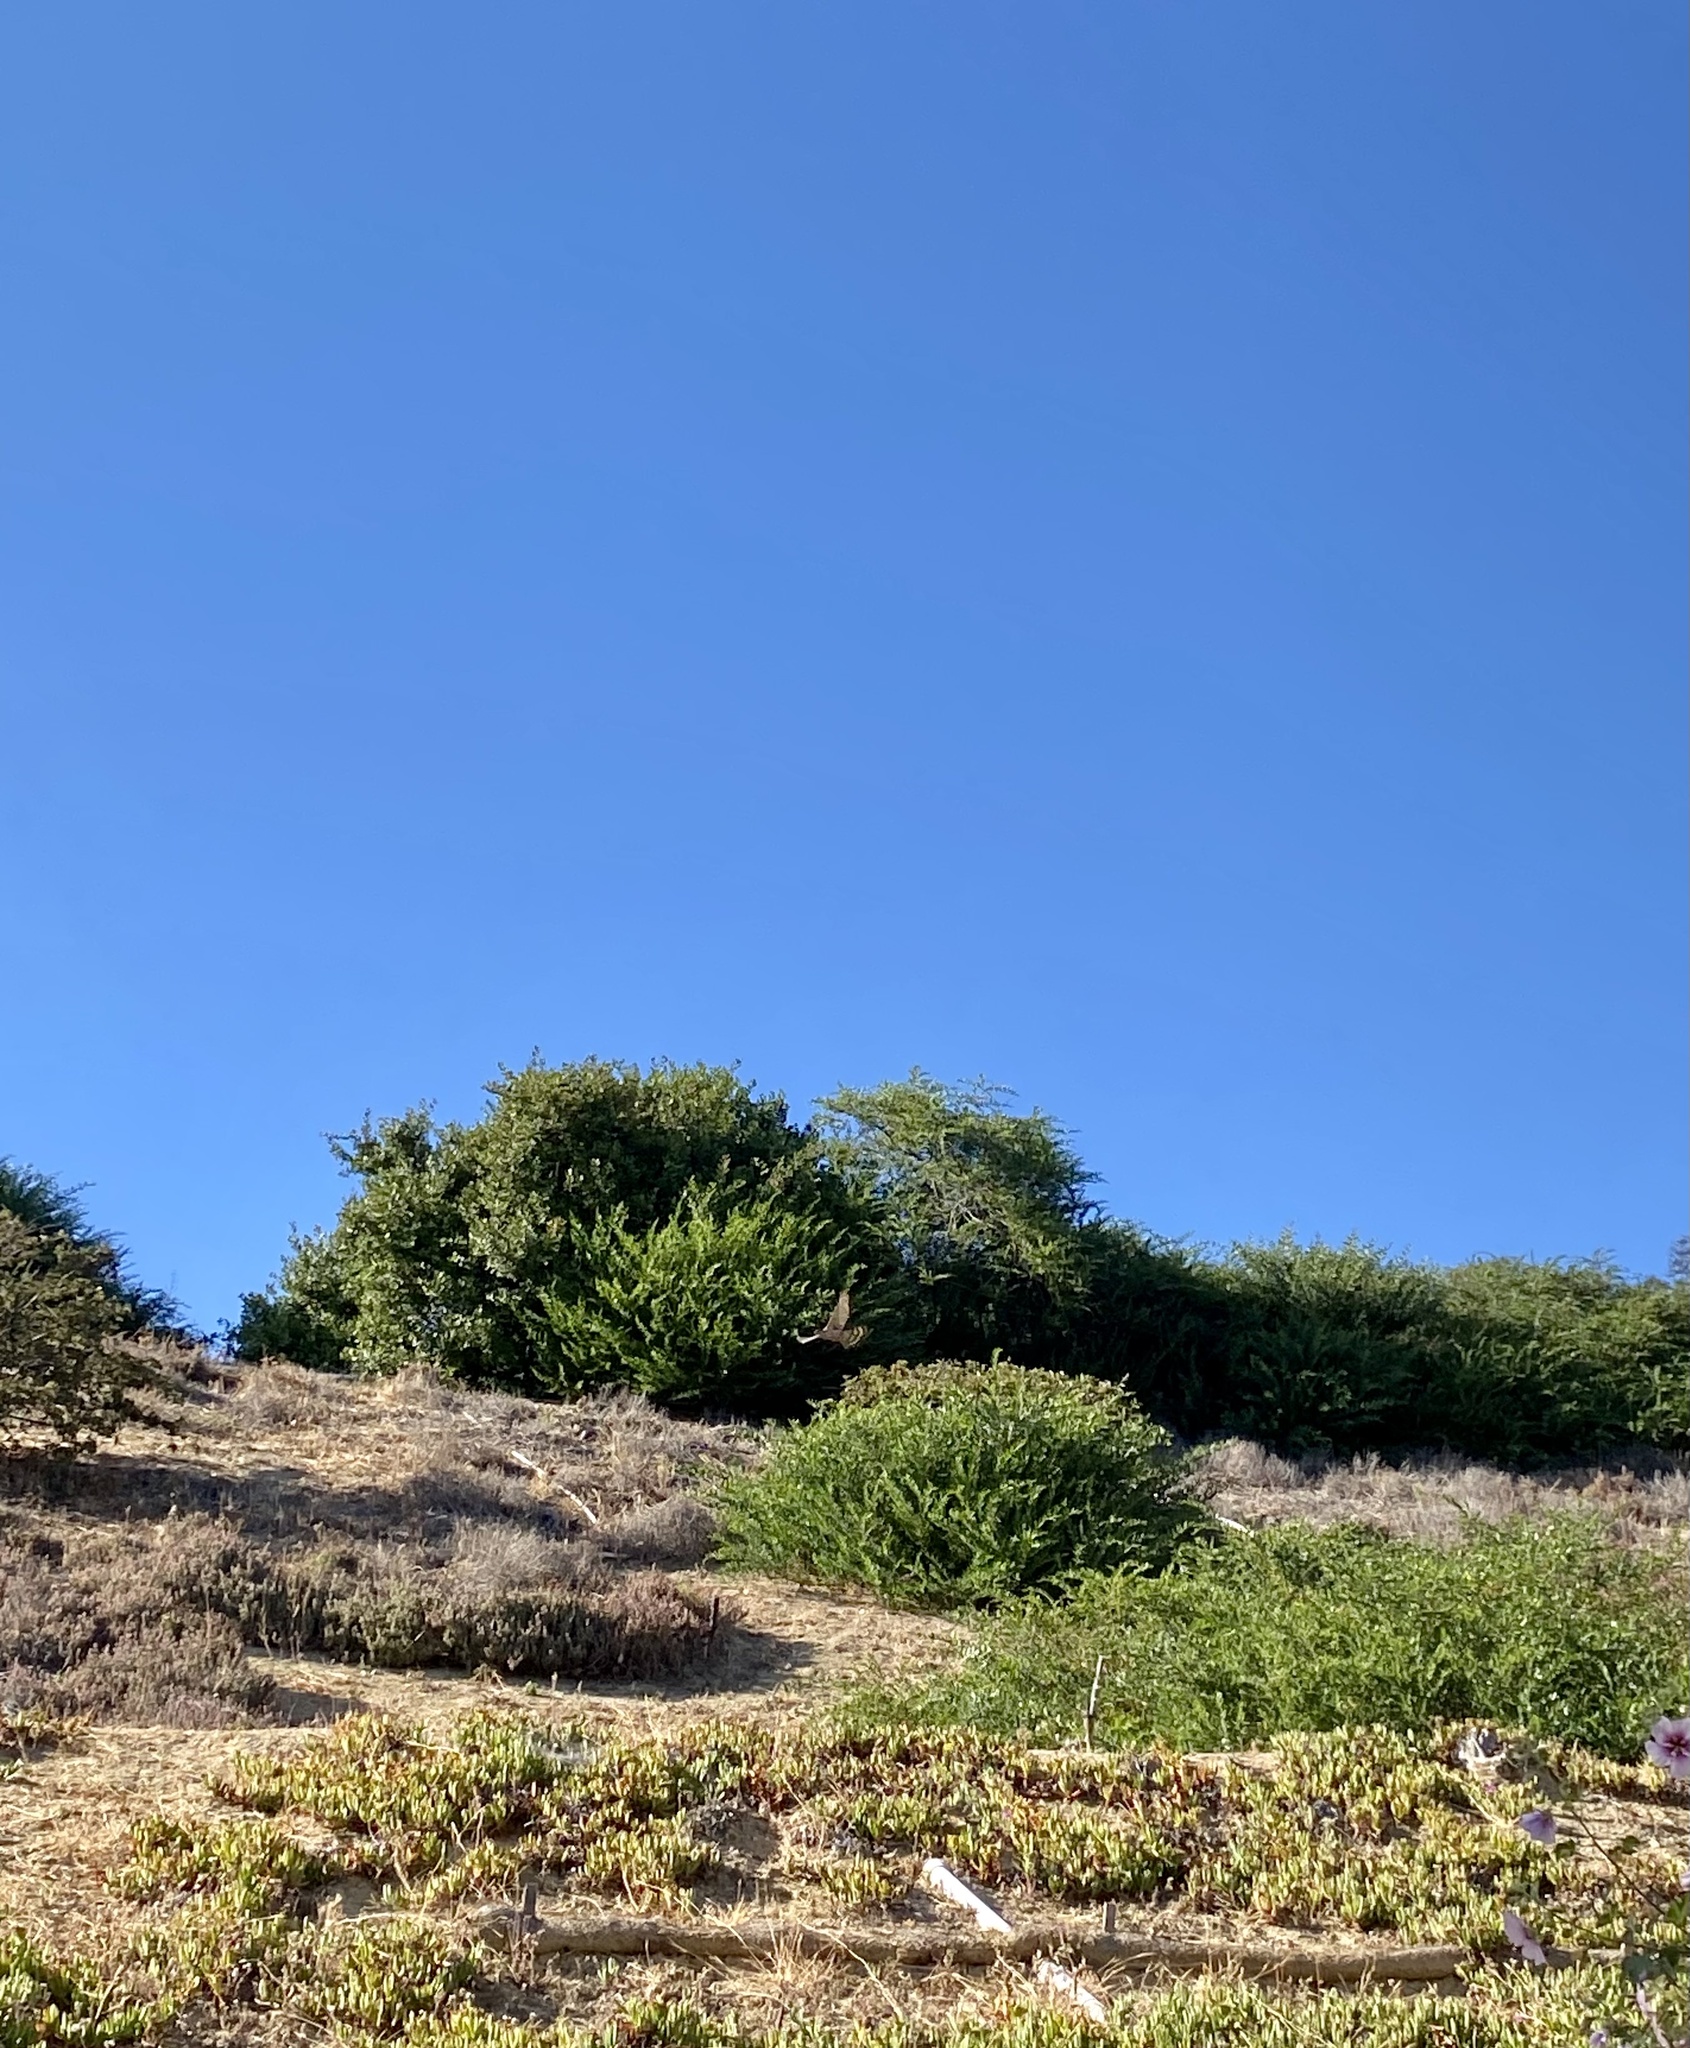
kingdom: Animalia
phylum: Chordata
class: Aves
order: Accipitriformes
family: Accipitridae
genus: Buteo
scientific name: Buteo jamaicensis
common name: Red-tailed hawk
